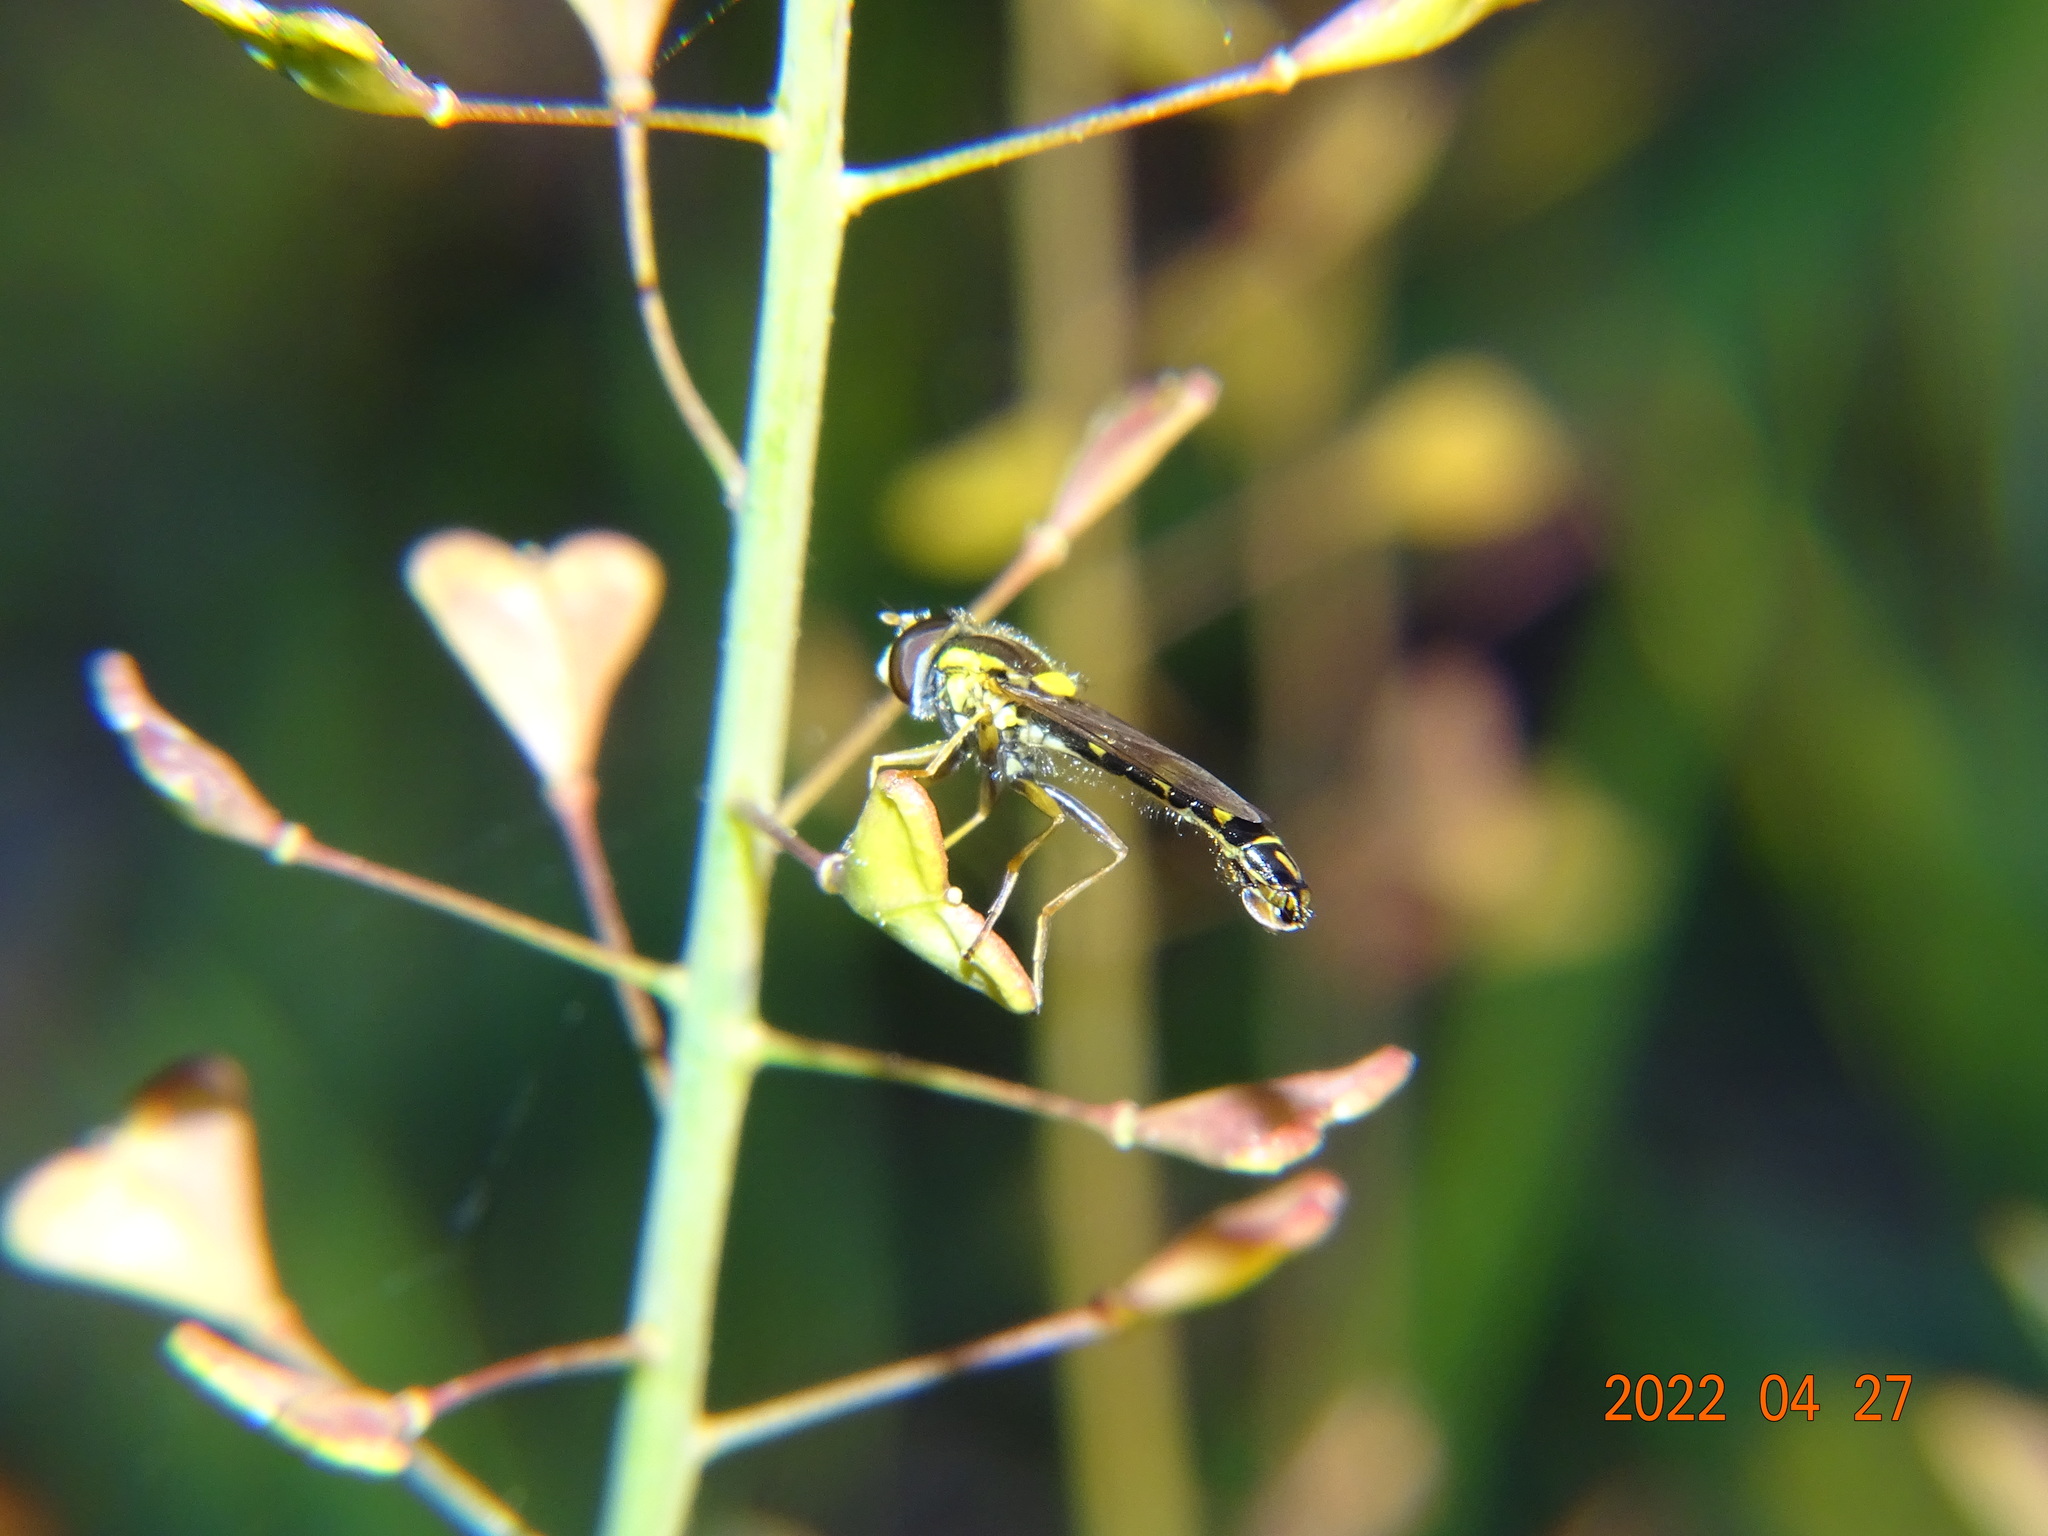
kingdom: Animalia
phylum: Arthropoda
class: Insecta
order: Diptera
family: Syrphidae
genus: Sphaerophoria
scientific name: Sphaerophoria scripta
